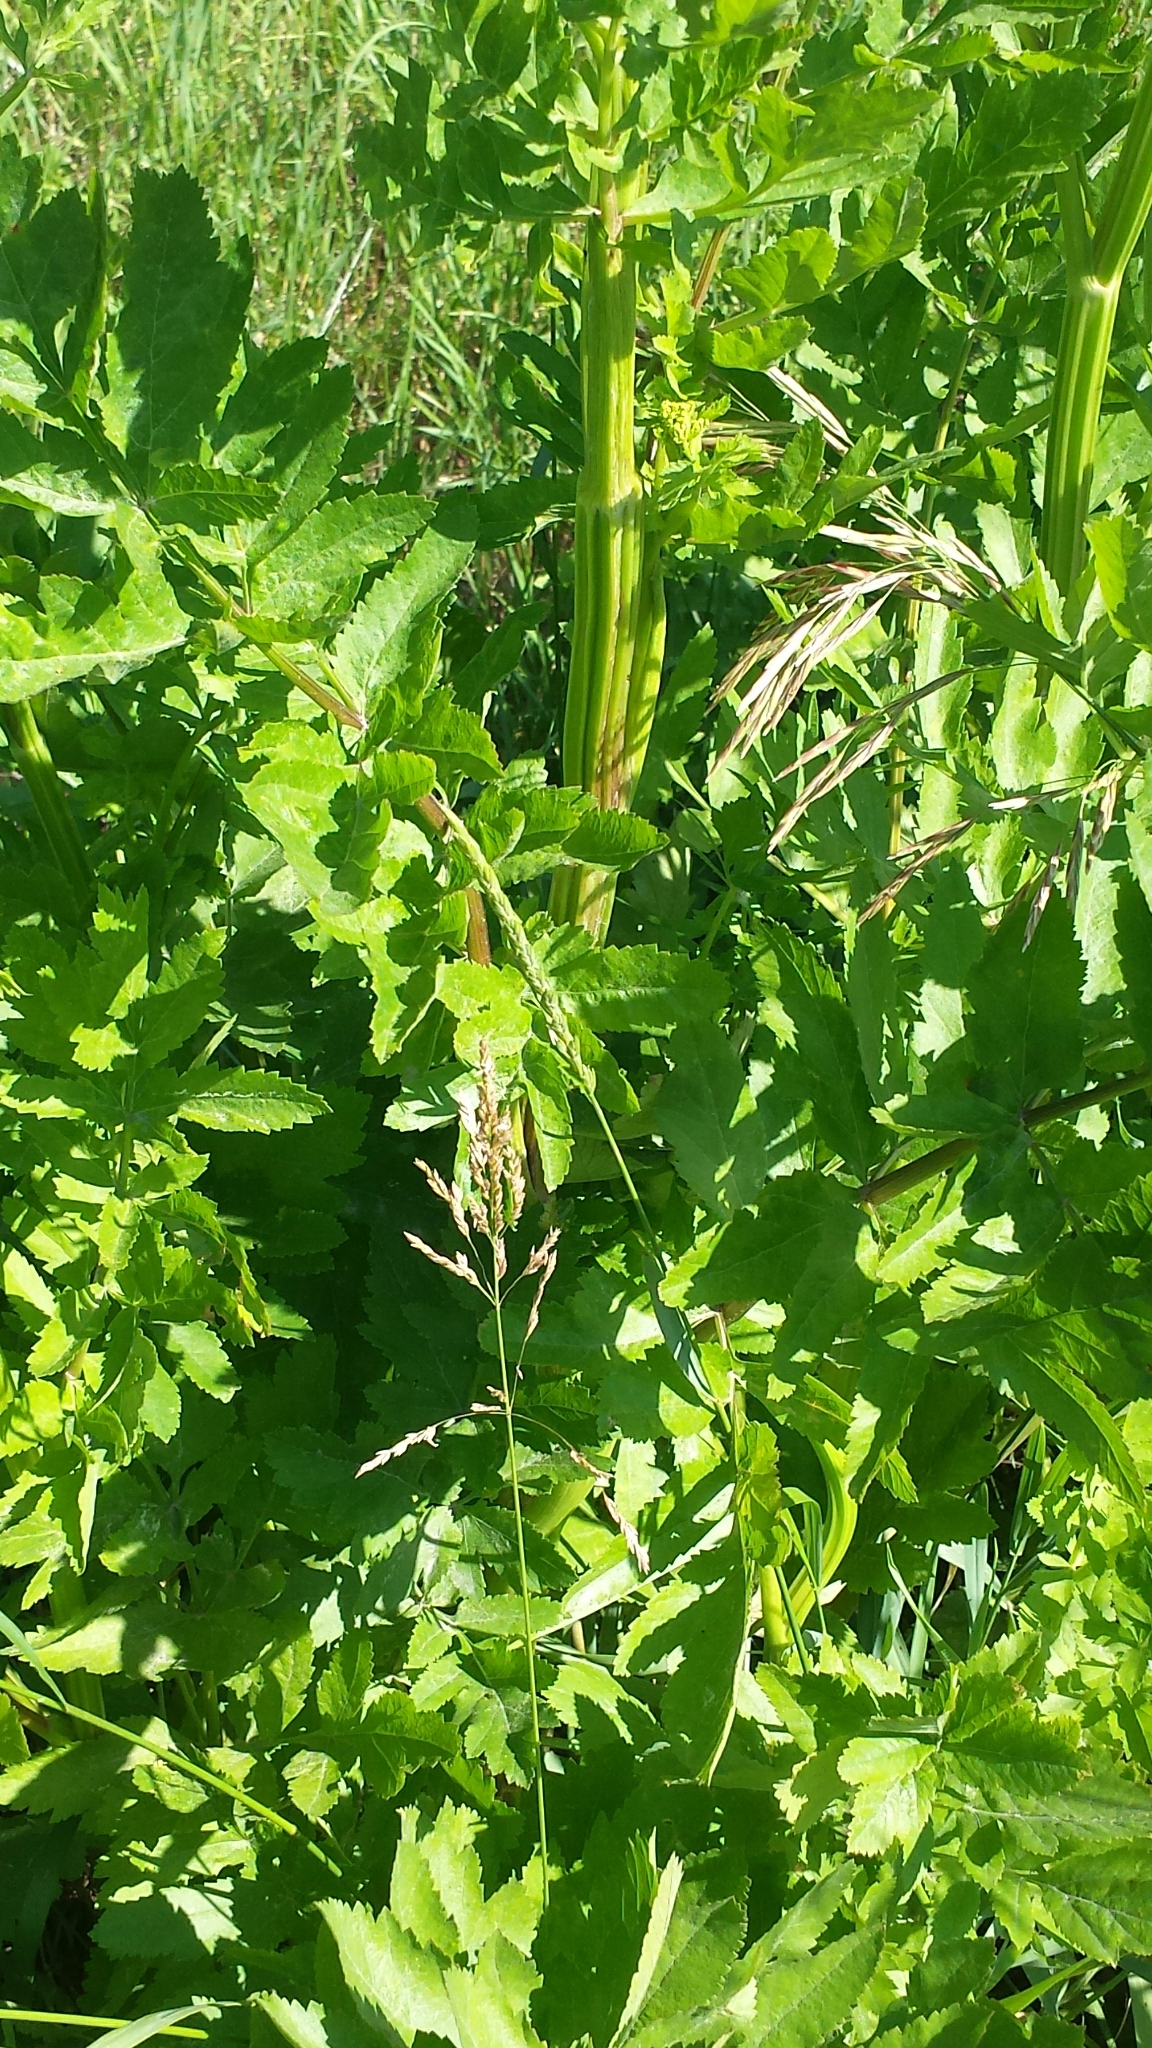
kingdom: Plantae
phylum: Tracheophyta
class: Magnoliopsida
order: Apiales
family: Apiaceae
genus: Pastinaca
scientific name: Pastinaca sativa
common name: Wild parsnip
